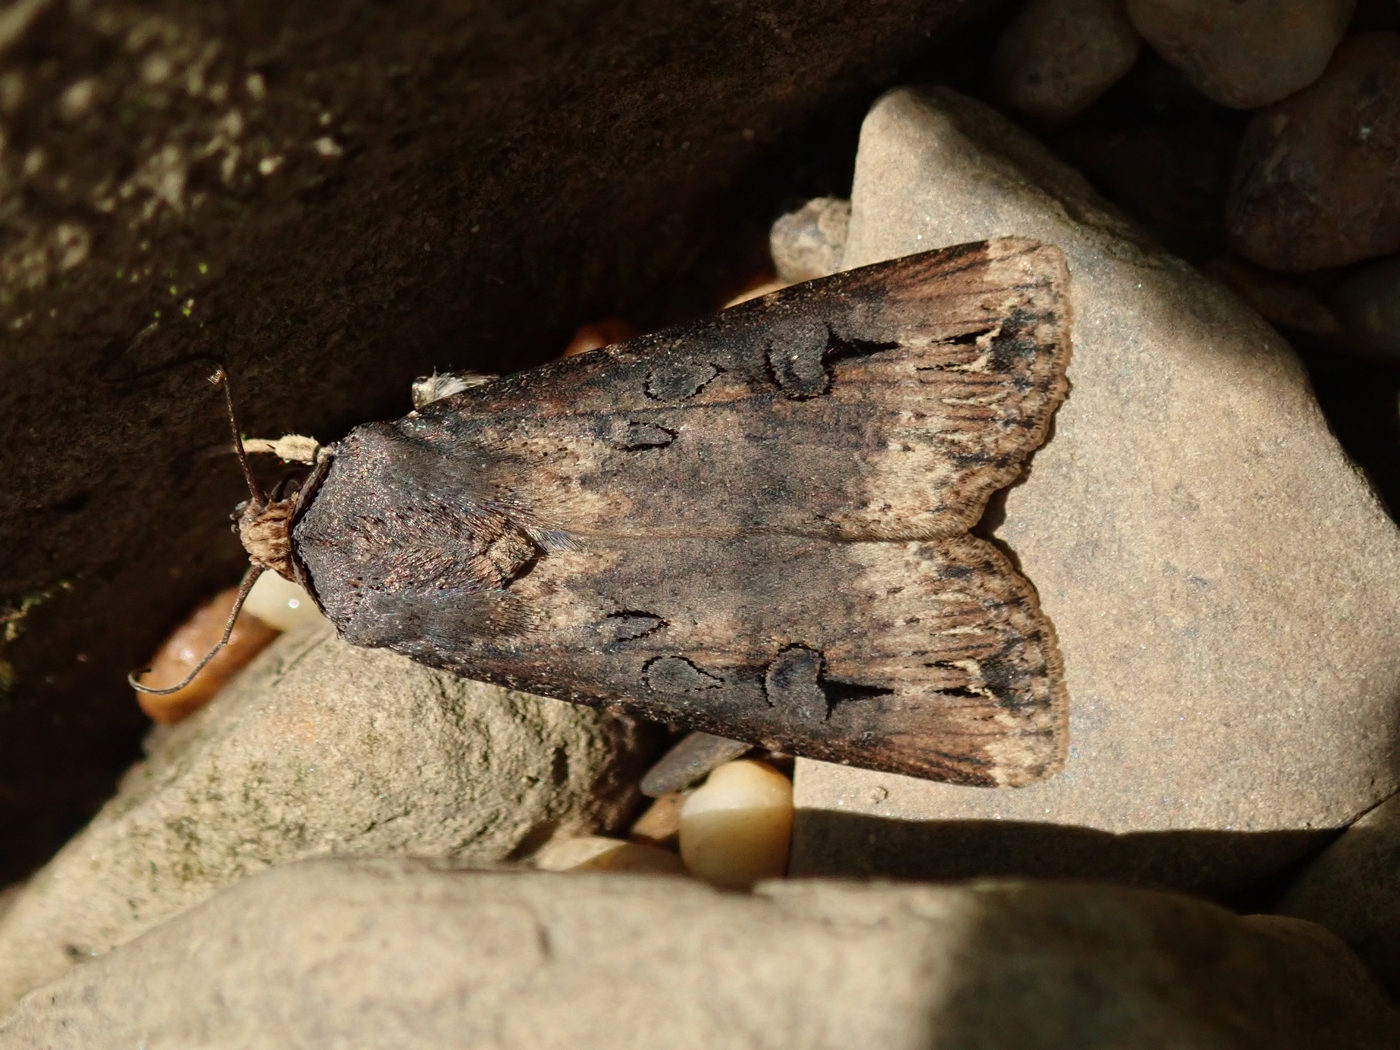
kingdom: Animalia
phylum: Arthropoda
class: Insecta
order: Lepidoptera
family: Noctuidae
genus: Agrotis
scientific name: Agrotis ipsilon
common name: Dark sword-grass
